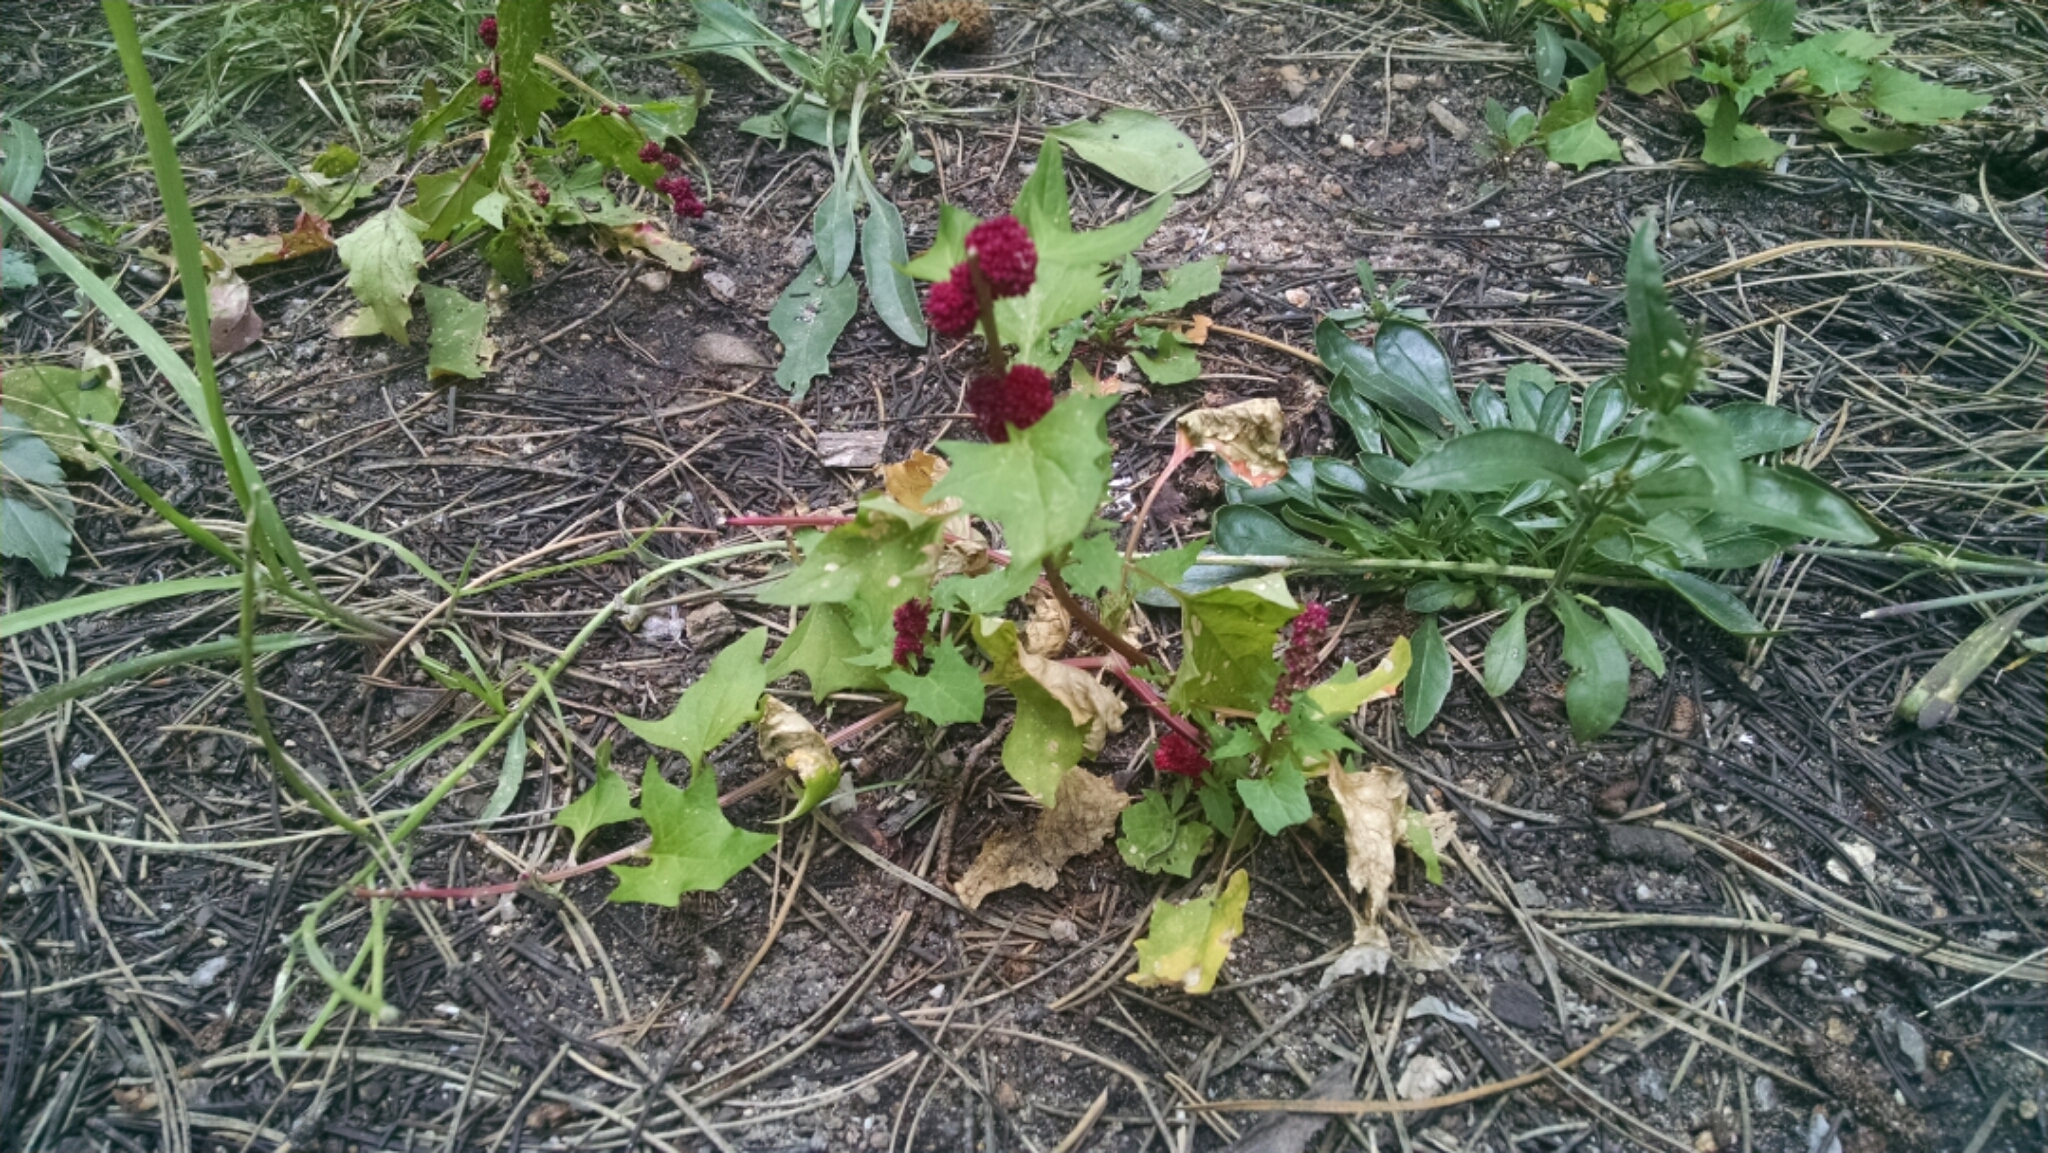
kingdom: Plantae
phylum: Tracheophyta
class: Magnoliopsida
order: Caryophyllales
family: Amaranthaceae
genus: Blitum
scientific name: Blitum capitatum
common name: Strawberry-blight
